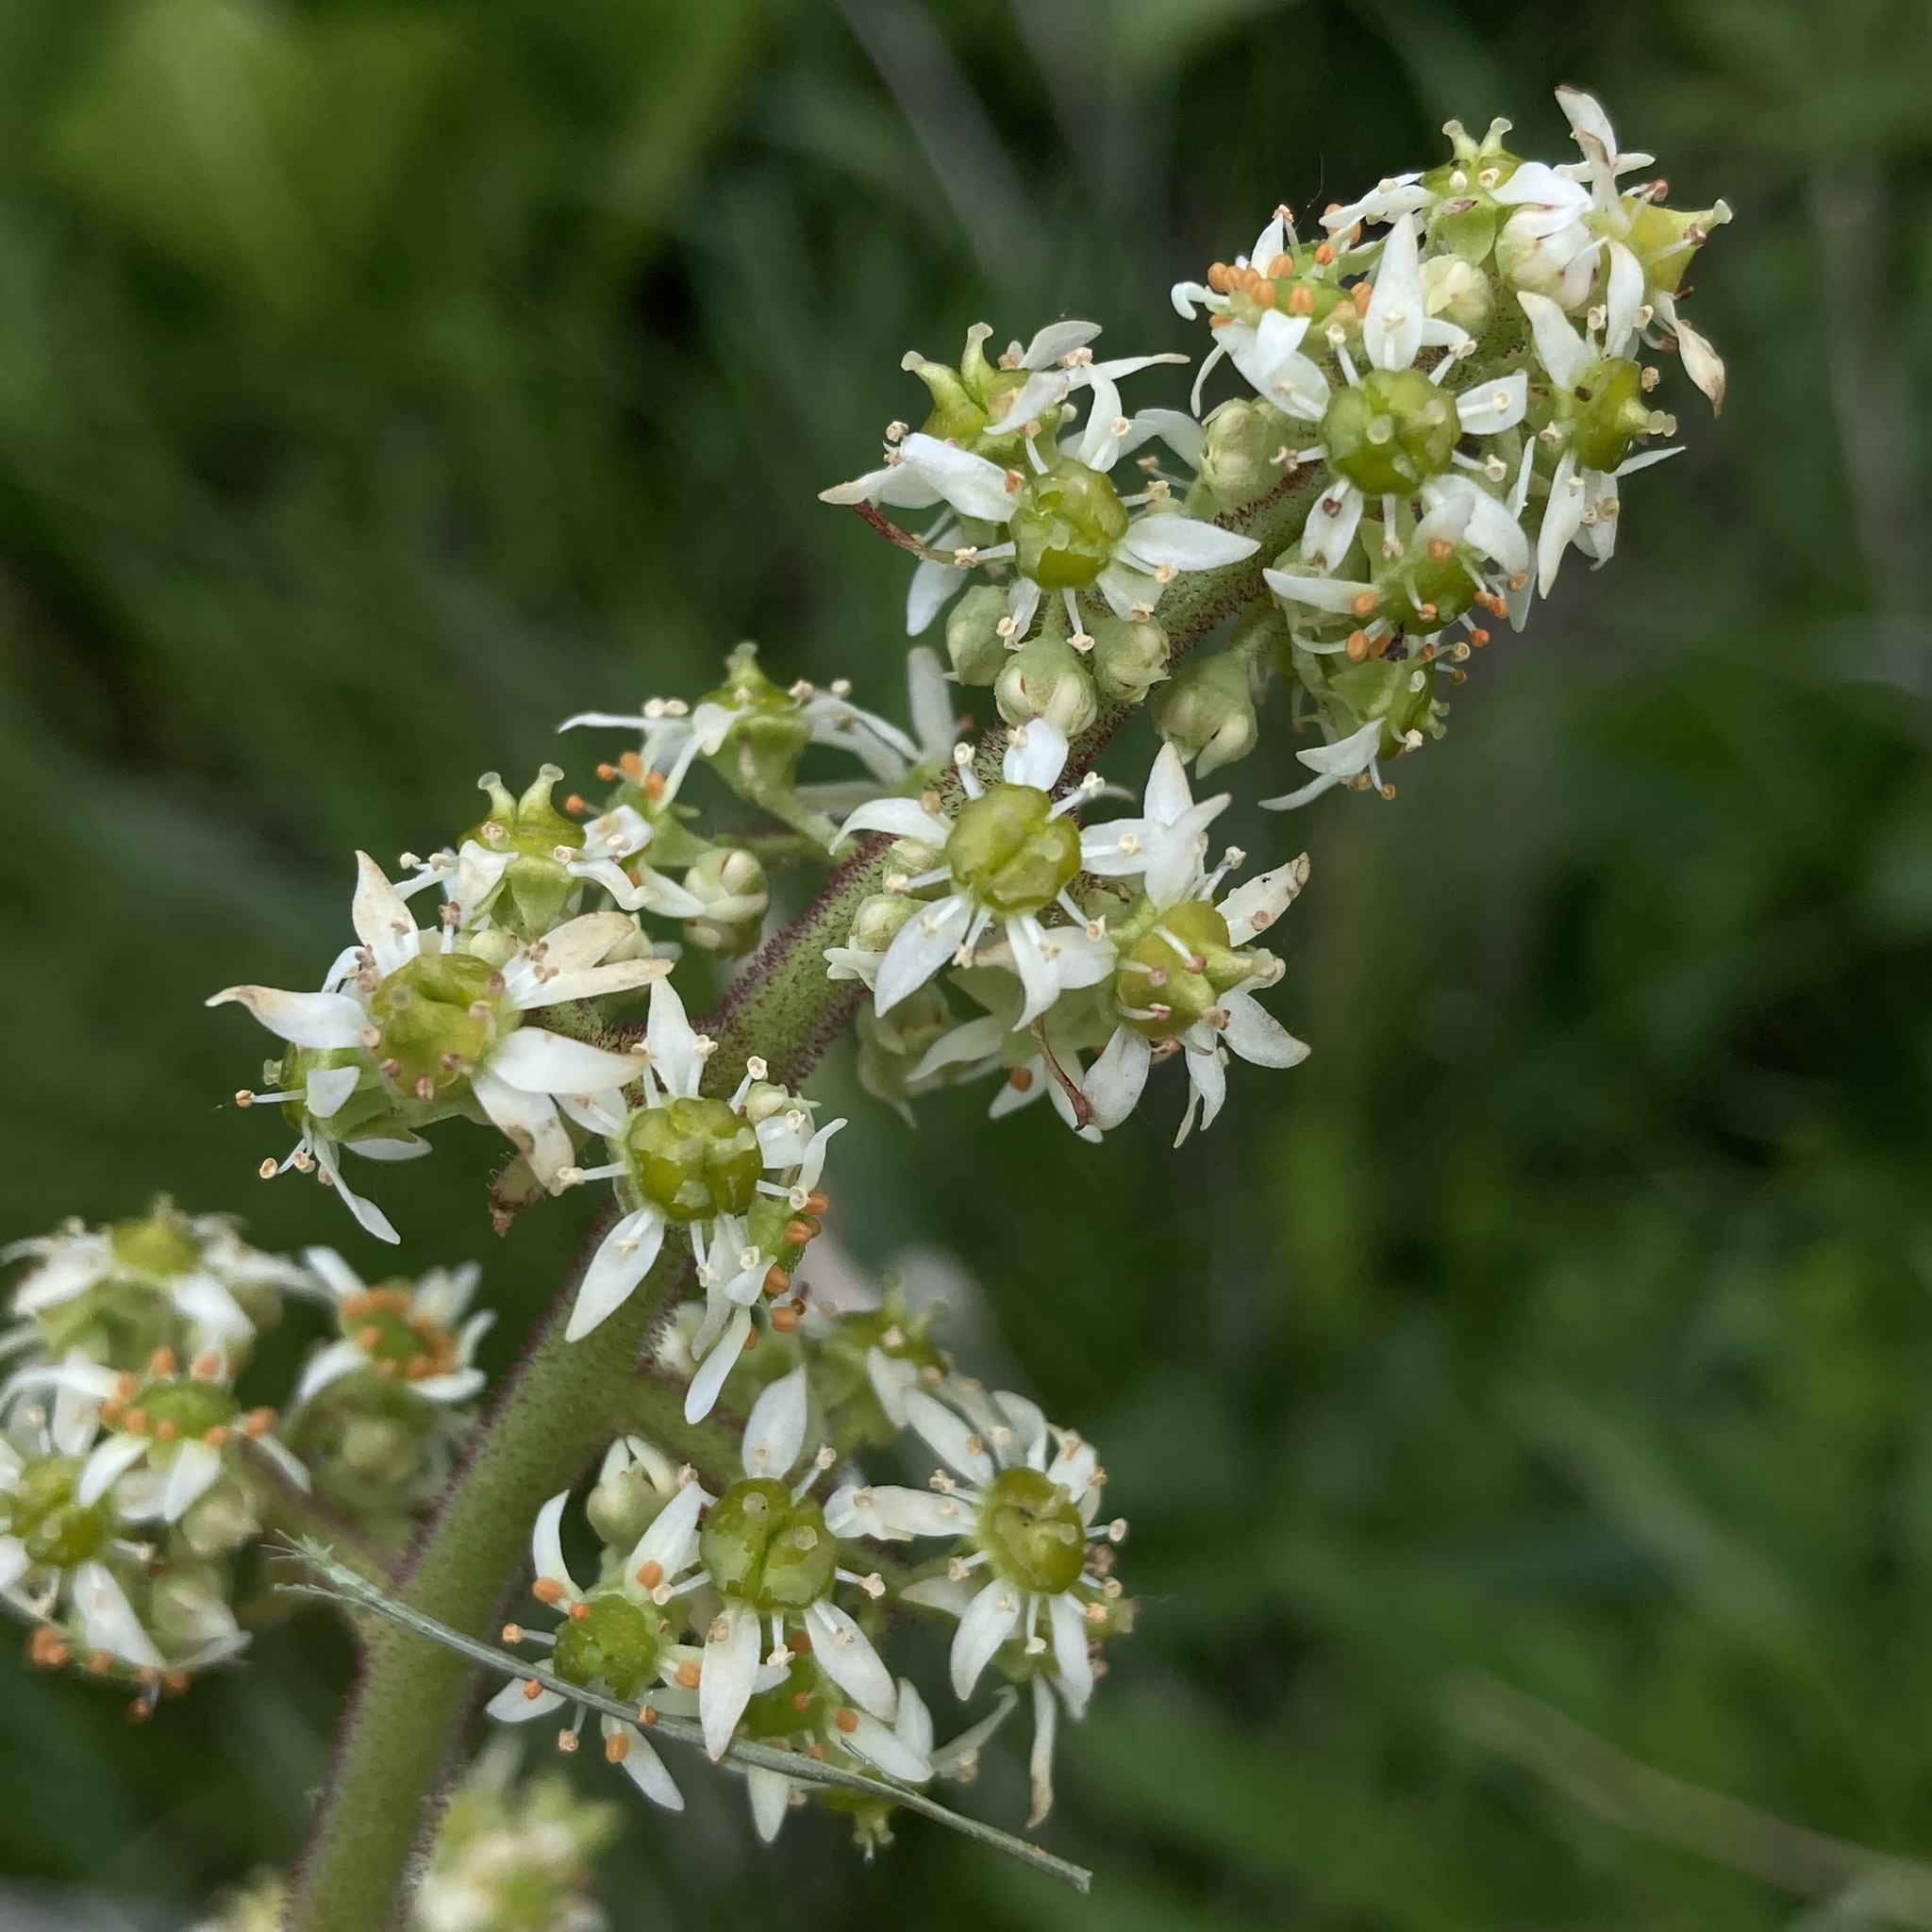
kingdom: Plantae
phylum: Tracheophyta
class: Magnoliopsida
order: Saxifragales
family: Saxifragaceae
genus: Micranthes
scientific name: Micranthes pensylvanica
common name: Marsh saxifrage
